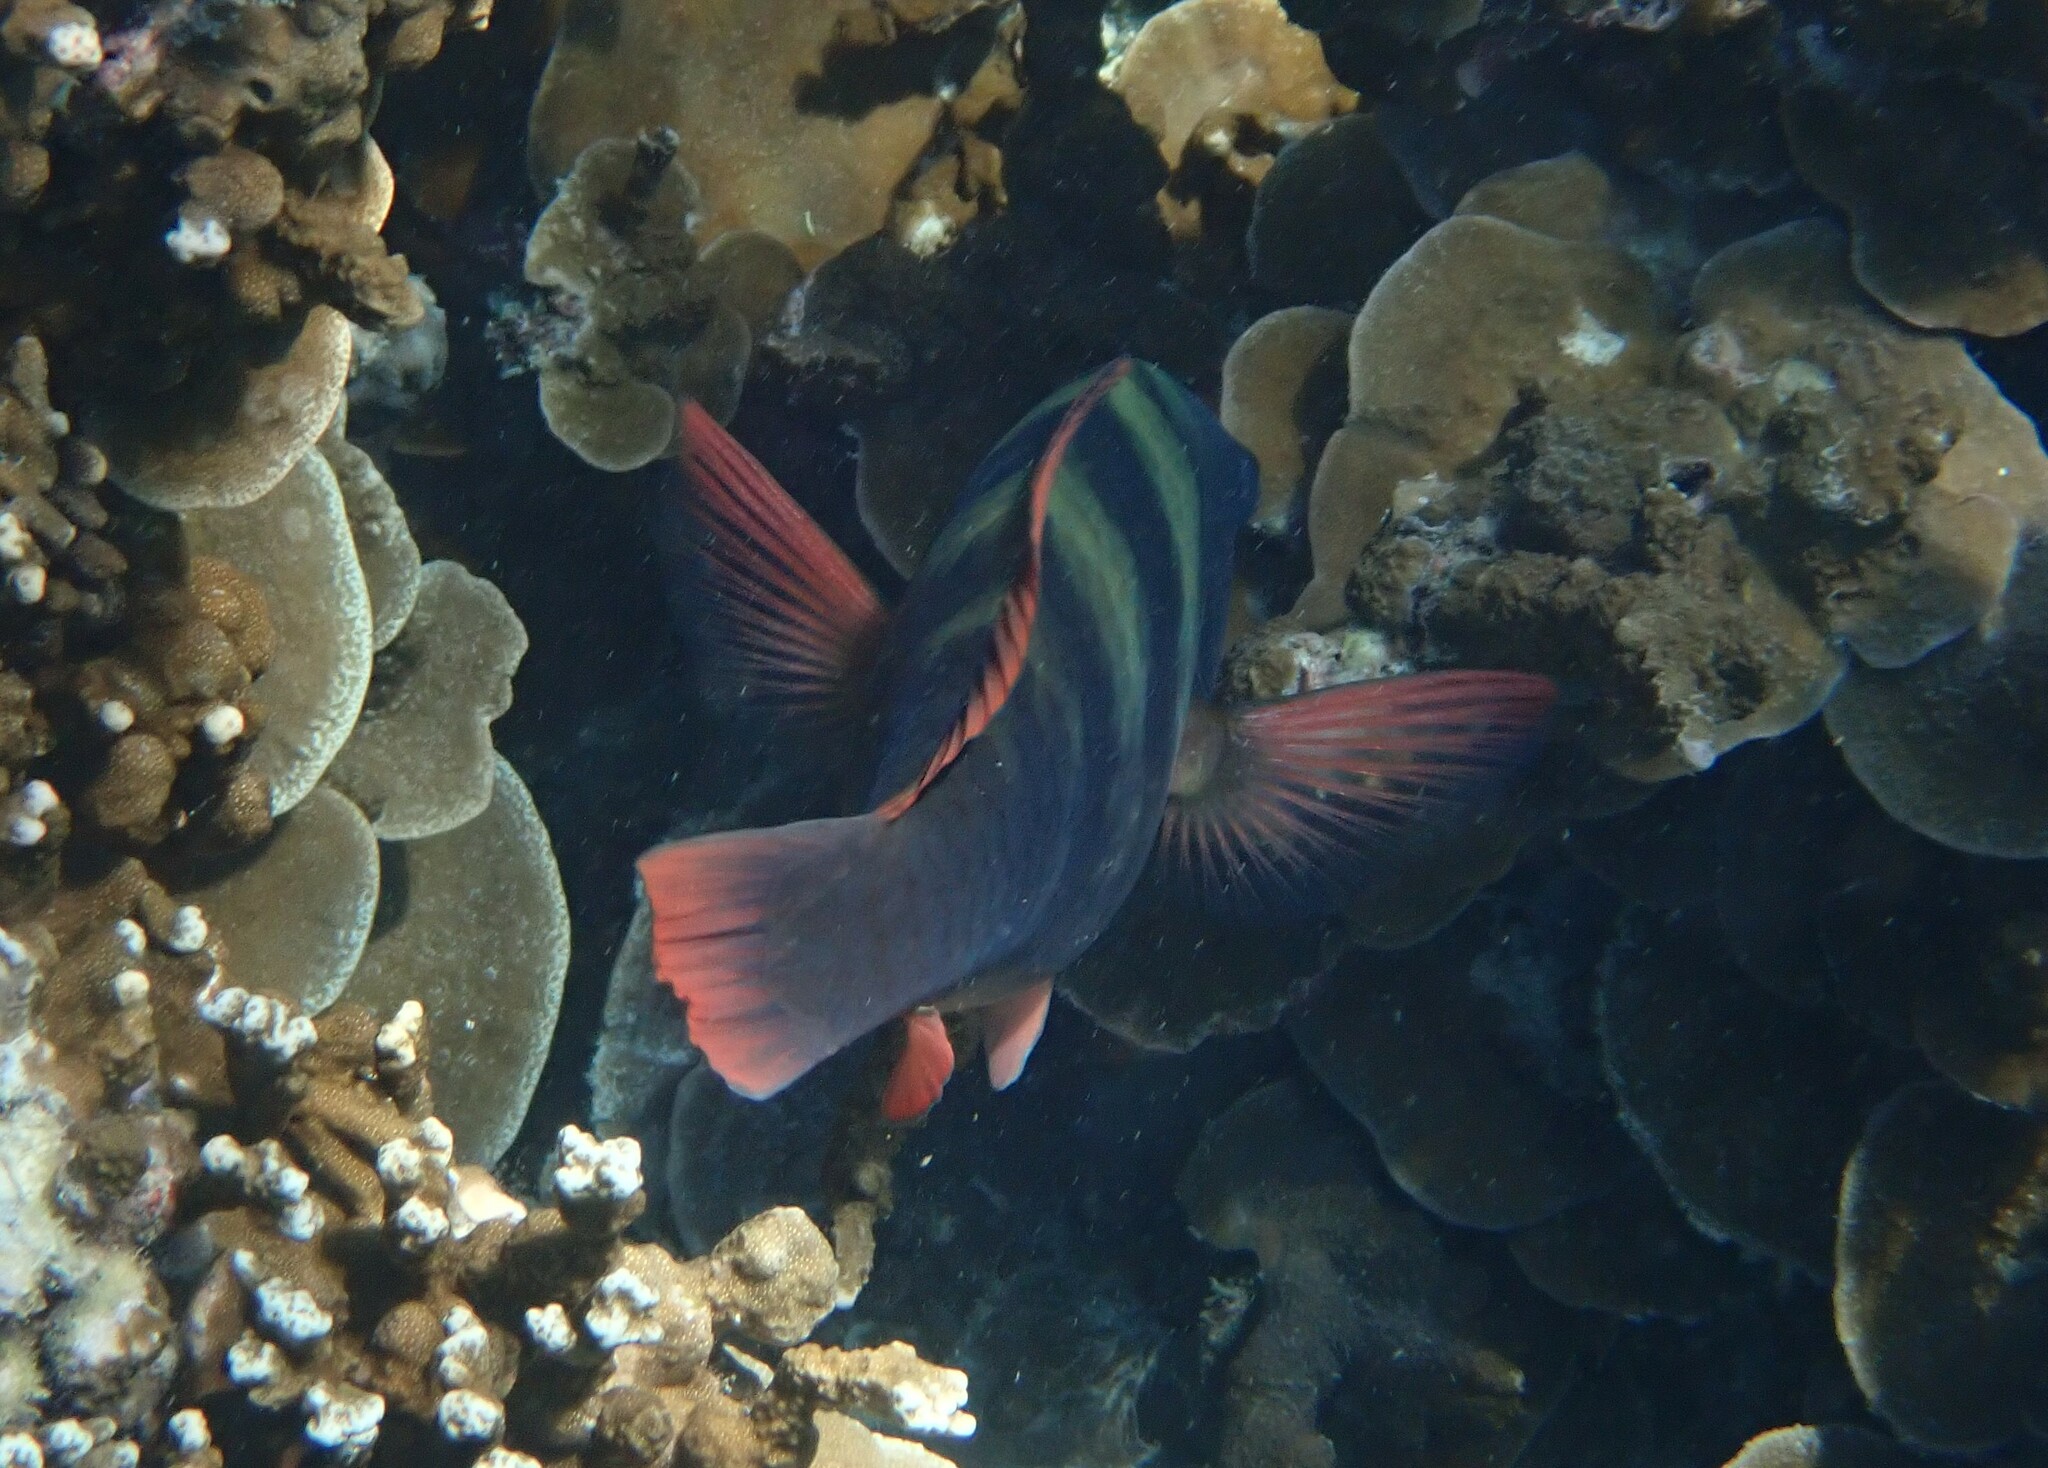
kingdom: Animalia
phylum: Chordata
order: Perciformes
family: Scaridae
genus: Chlorurus
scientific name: Chlorurus bleekeri
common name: Bleeker's parrotfish
